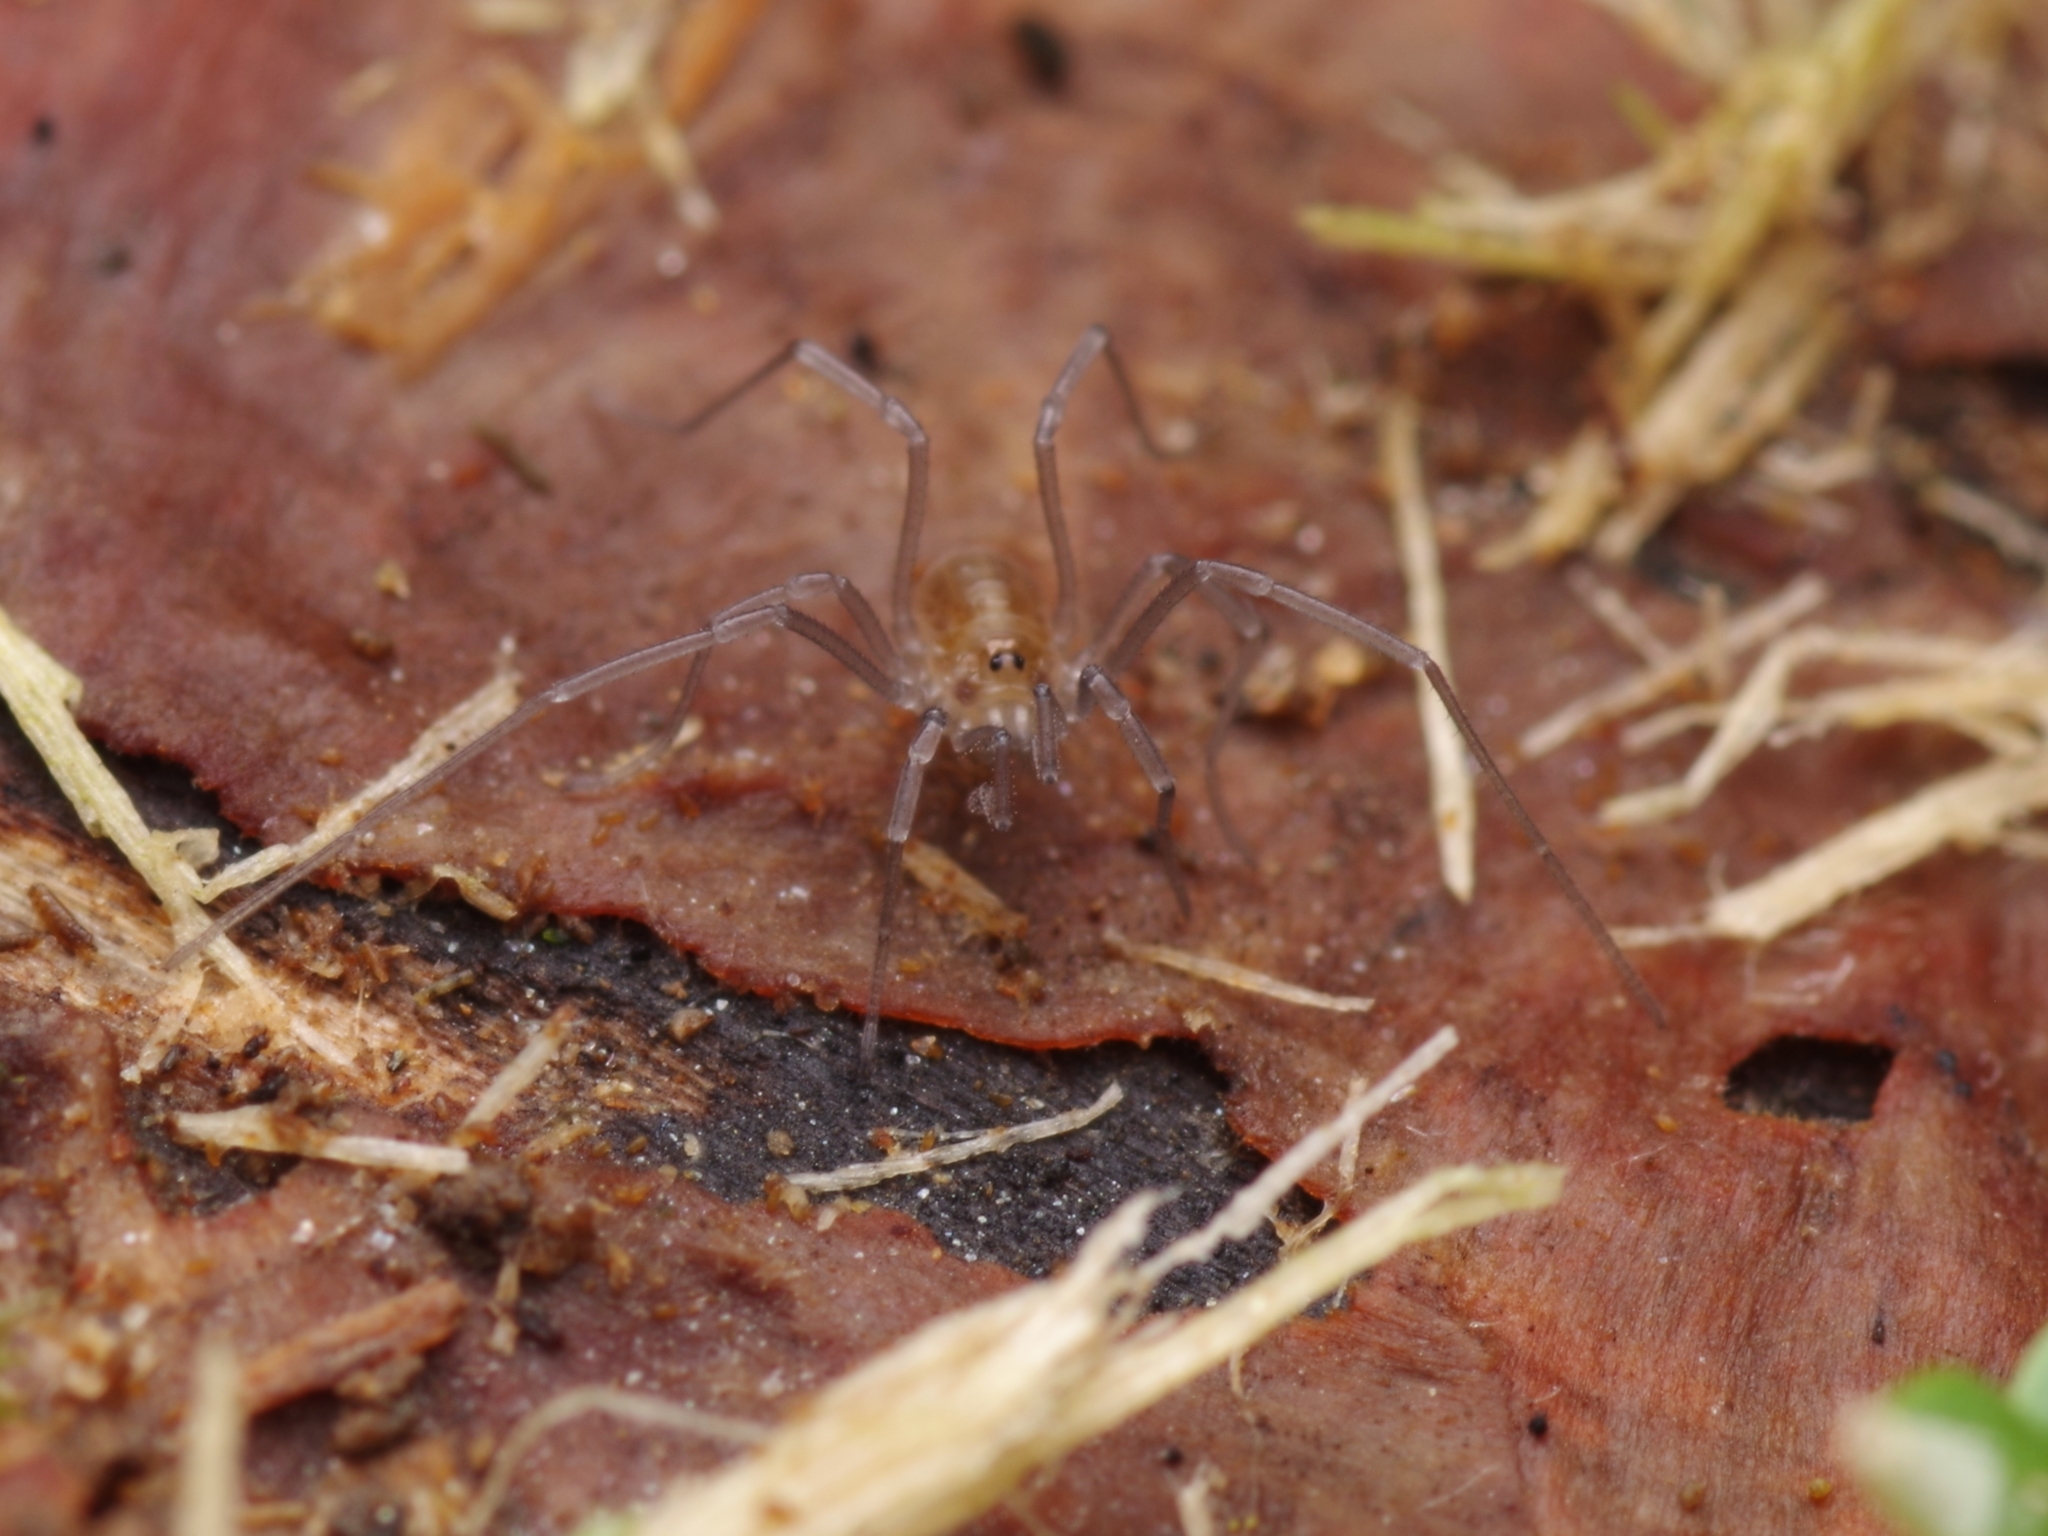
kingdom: Animalia
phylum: Arthropoda
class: Arachnida
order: Opiliones
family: Nemastomatidae
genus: Mitostoma
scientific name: Mitostoma chrysomelas
